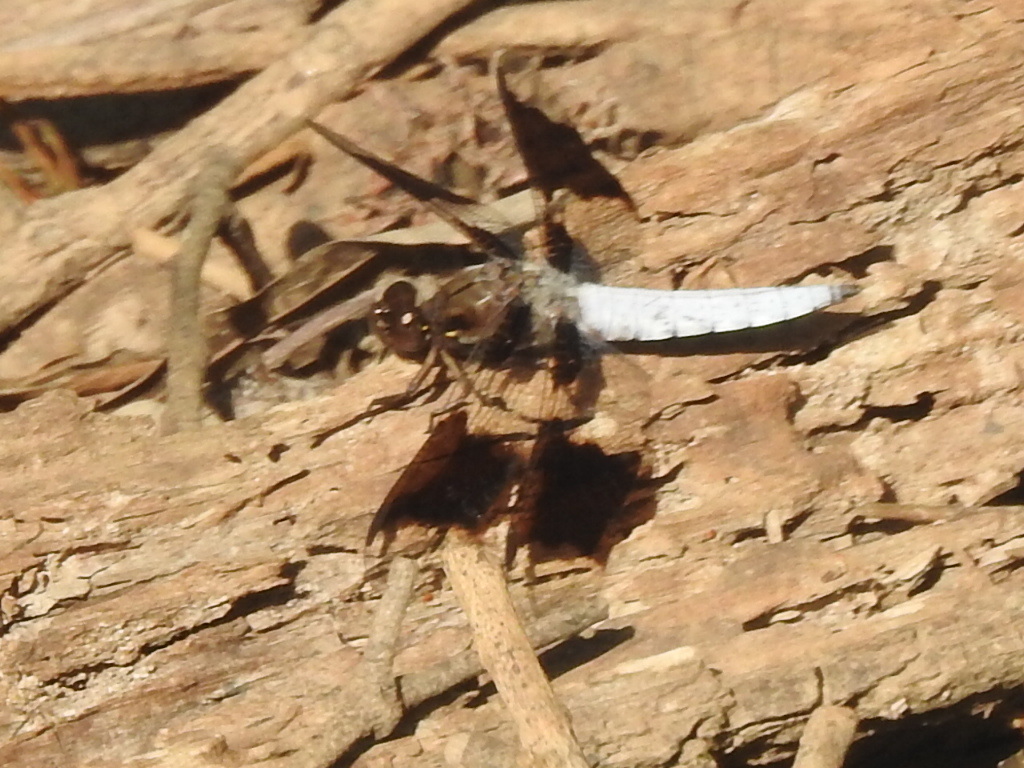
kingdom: Animalia
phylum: Arthropoda
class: Insecta
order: Odonata
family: Libellulidae
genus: Plathemis
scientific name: Plathemis lydia
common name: Common whitetail
